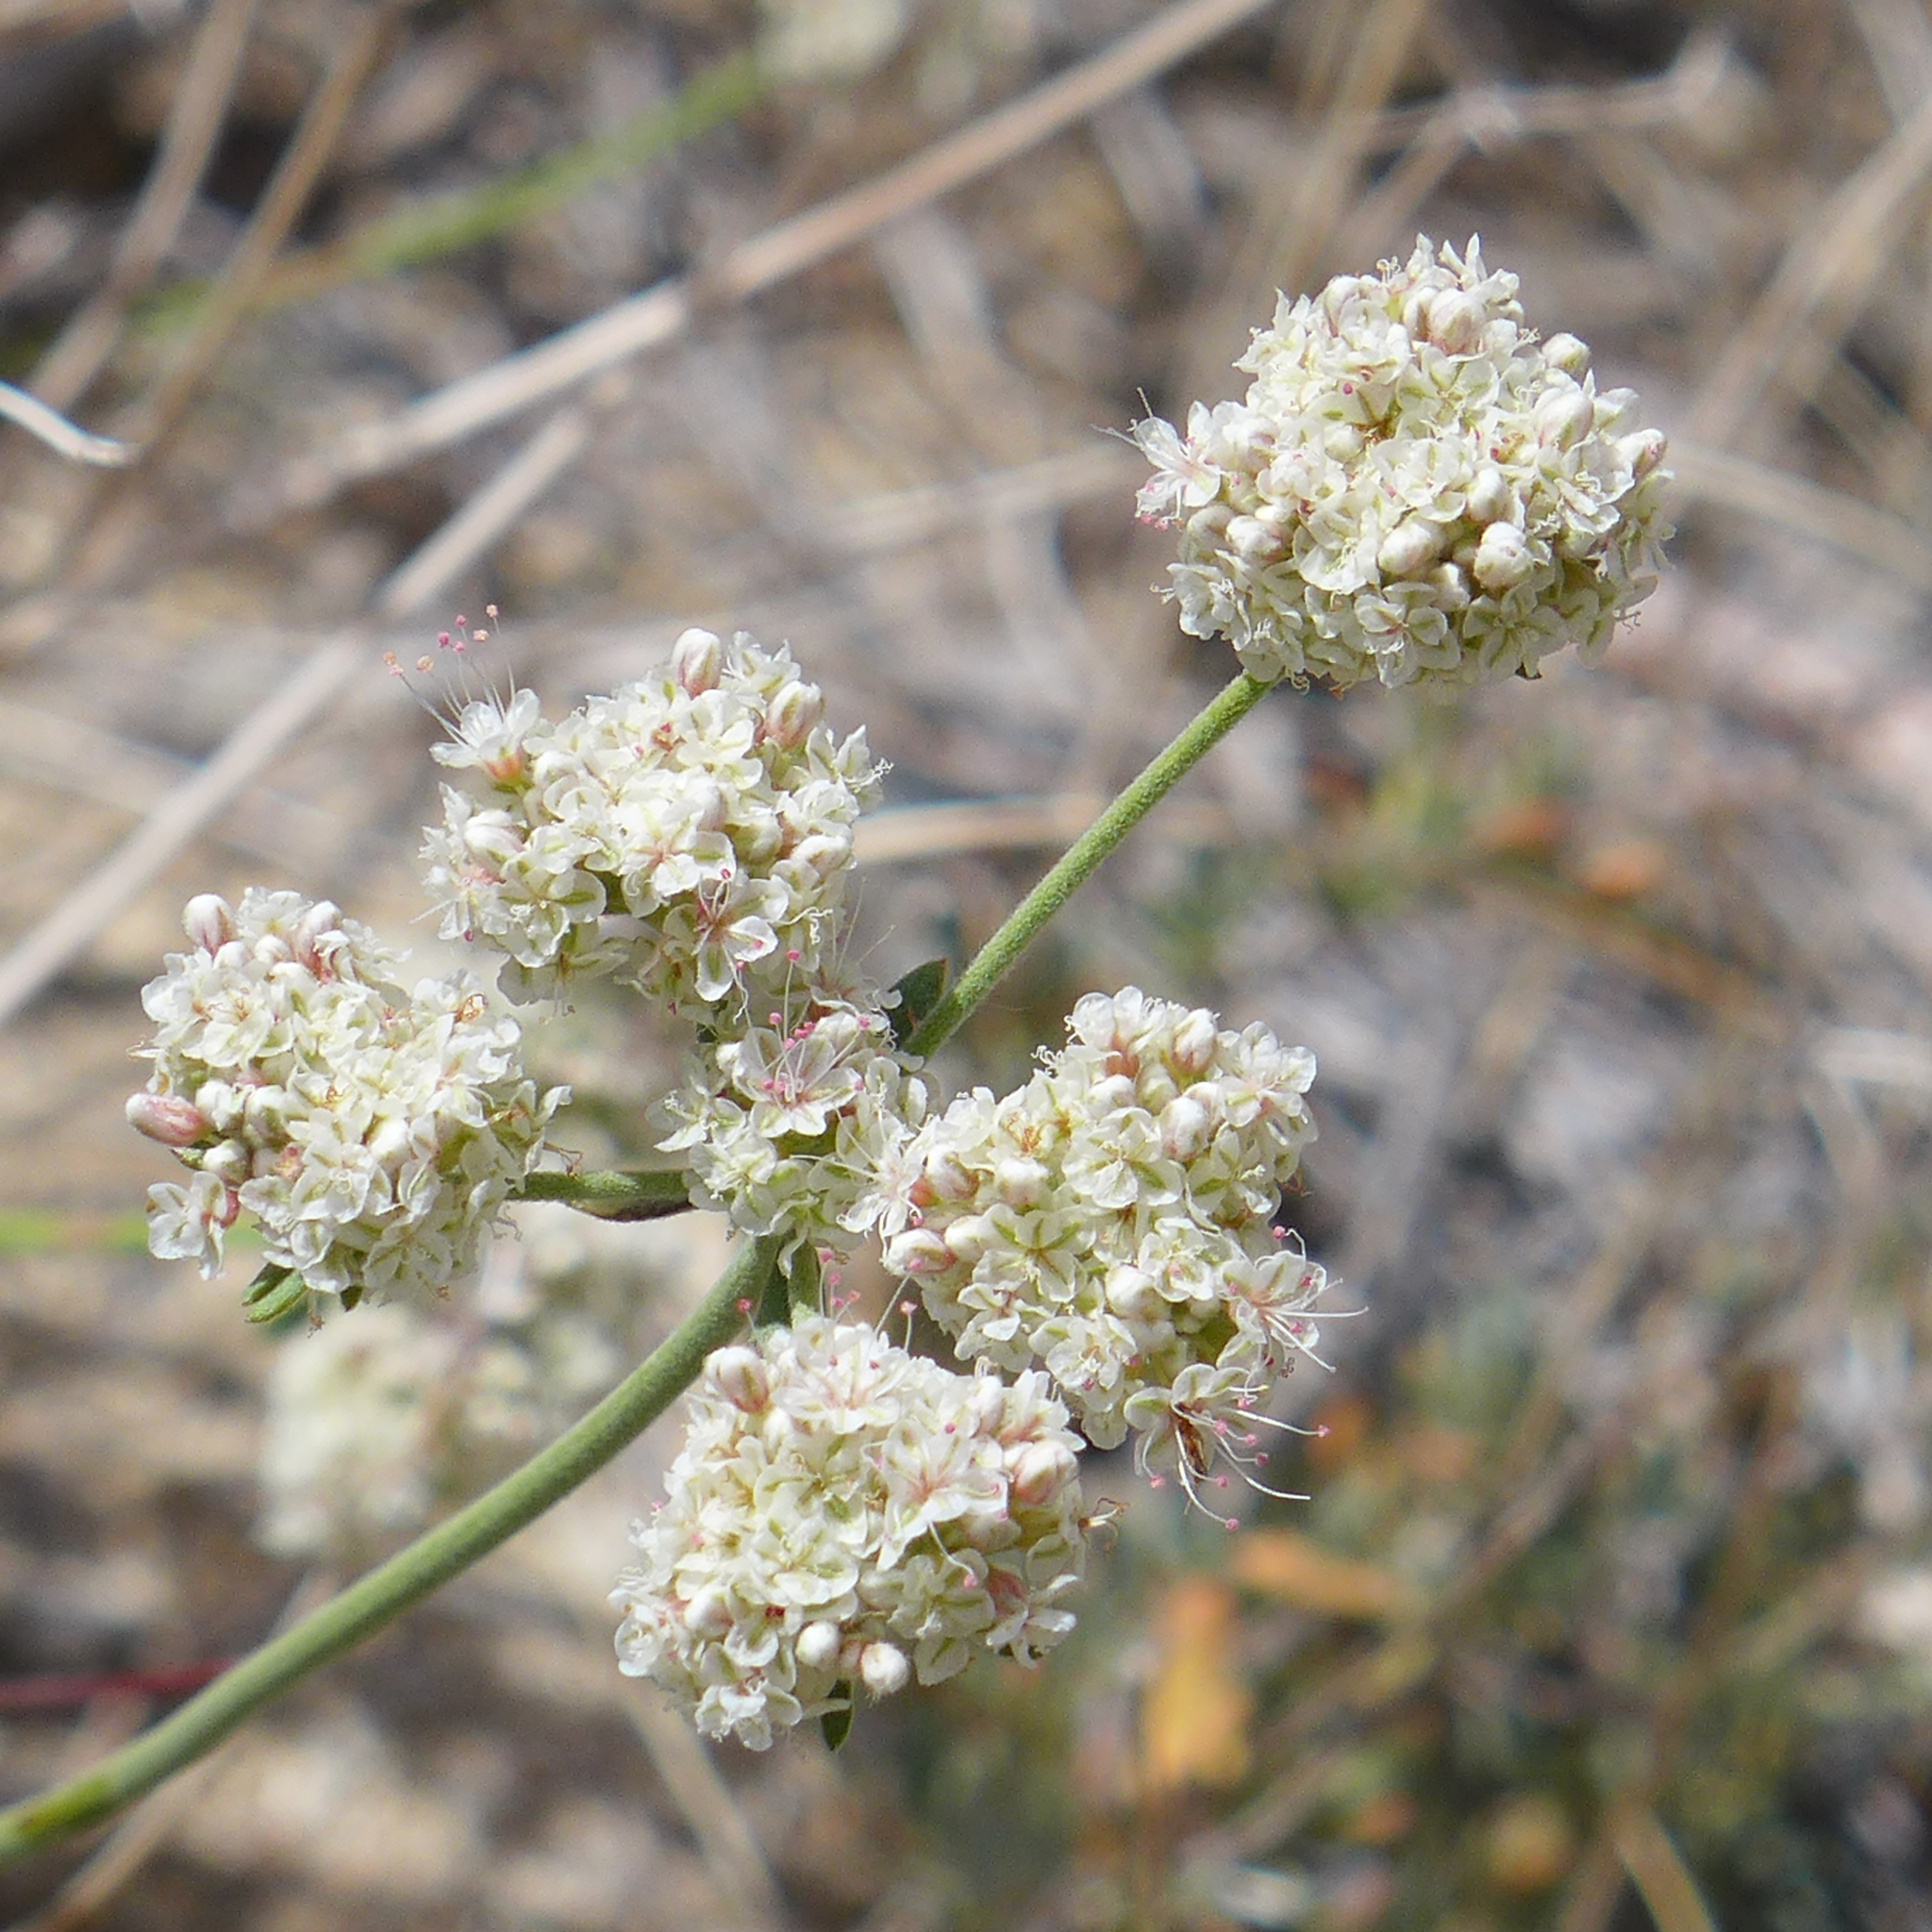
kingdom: Plantae
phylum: Tracheophyta
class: Magnoliopsida
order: Caryophyllales
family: Polygonaceae
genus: Eriogonum
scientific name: Eriogonum fasciculatum
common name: California wild buckwheat
